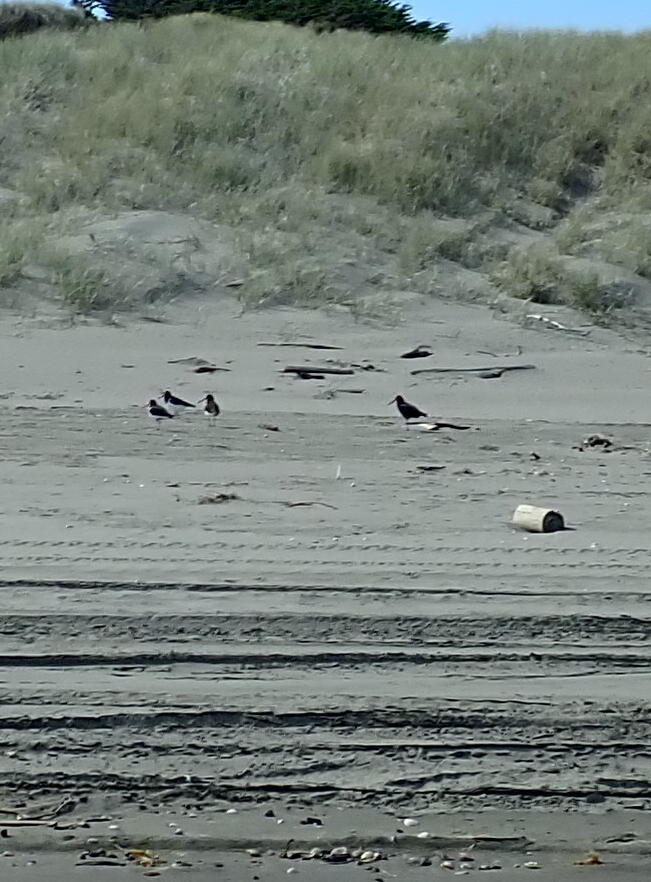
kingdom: Animalia
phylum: Chordata
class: Aves
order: Charadriiformes
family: Haematopodidae
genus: Haematopus
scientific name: Haematopus unicolor
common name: Variable oystercatcher
